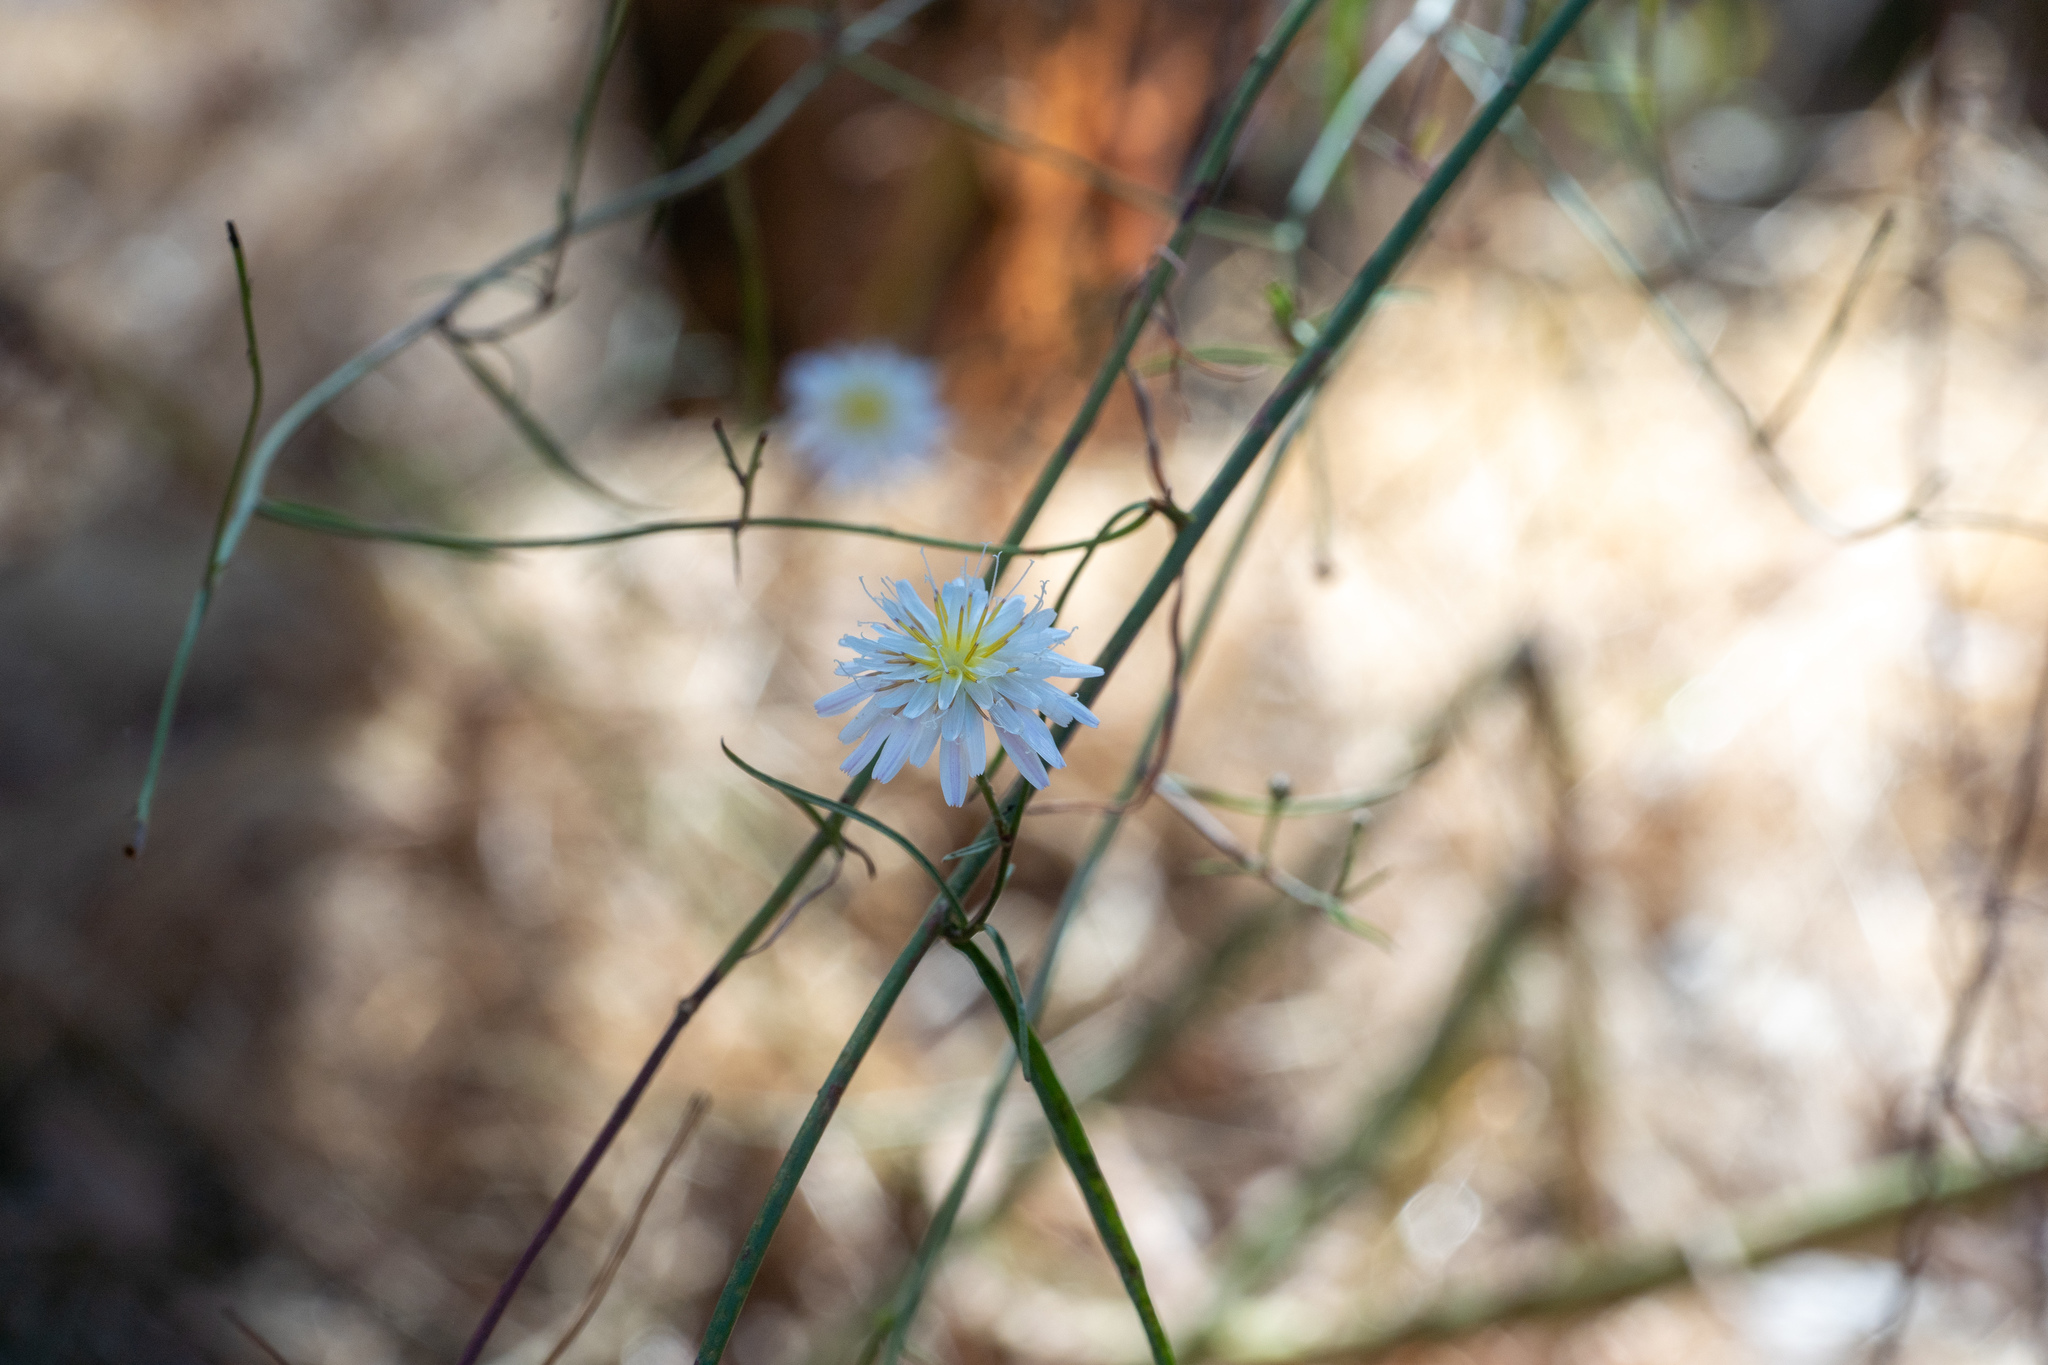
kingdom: Plantae
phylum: Tracheophyta
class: Magnoliopsida
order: Asterales
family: Asteraceae
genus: Malacothrix
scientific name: Malacothrix saxatilis
